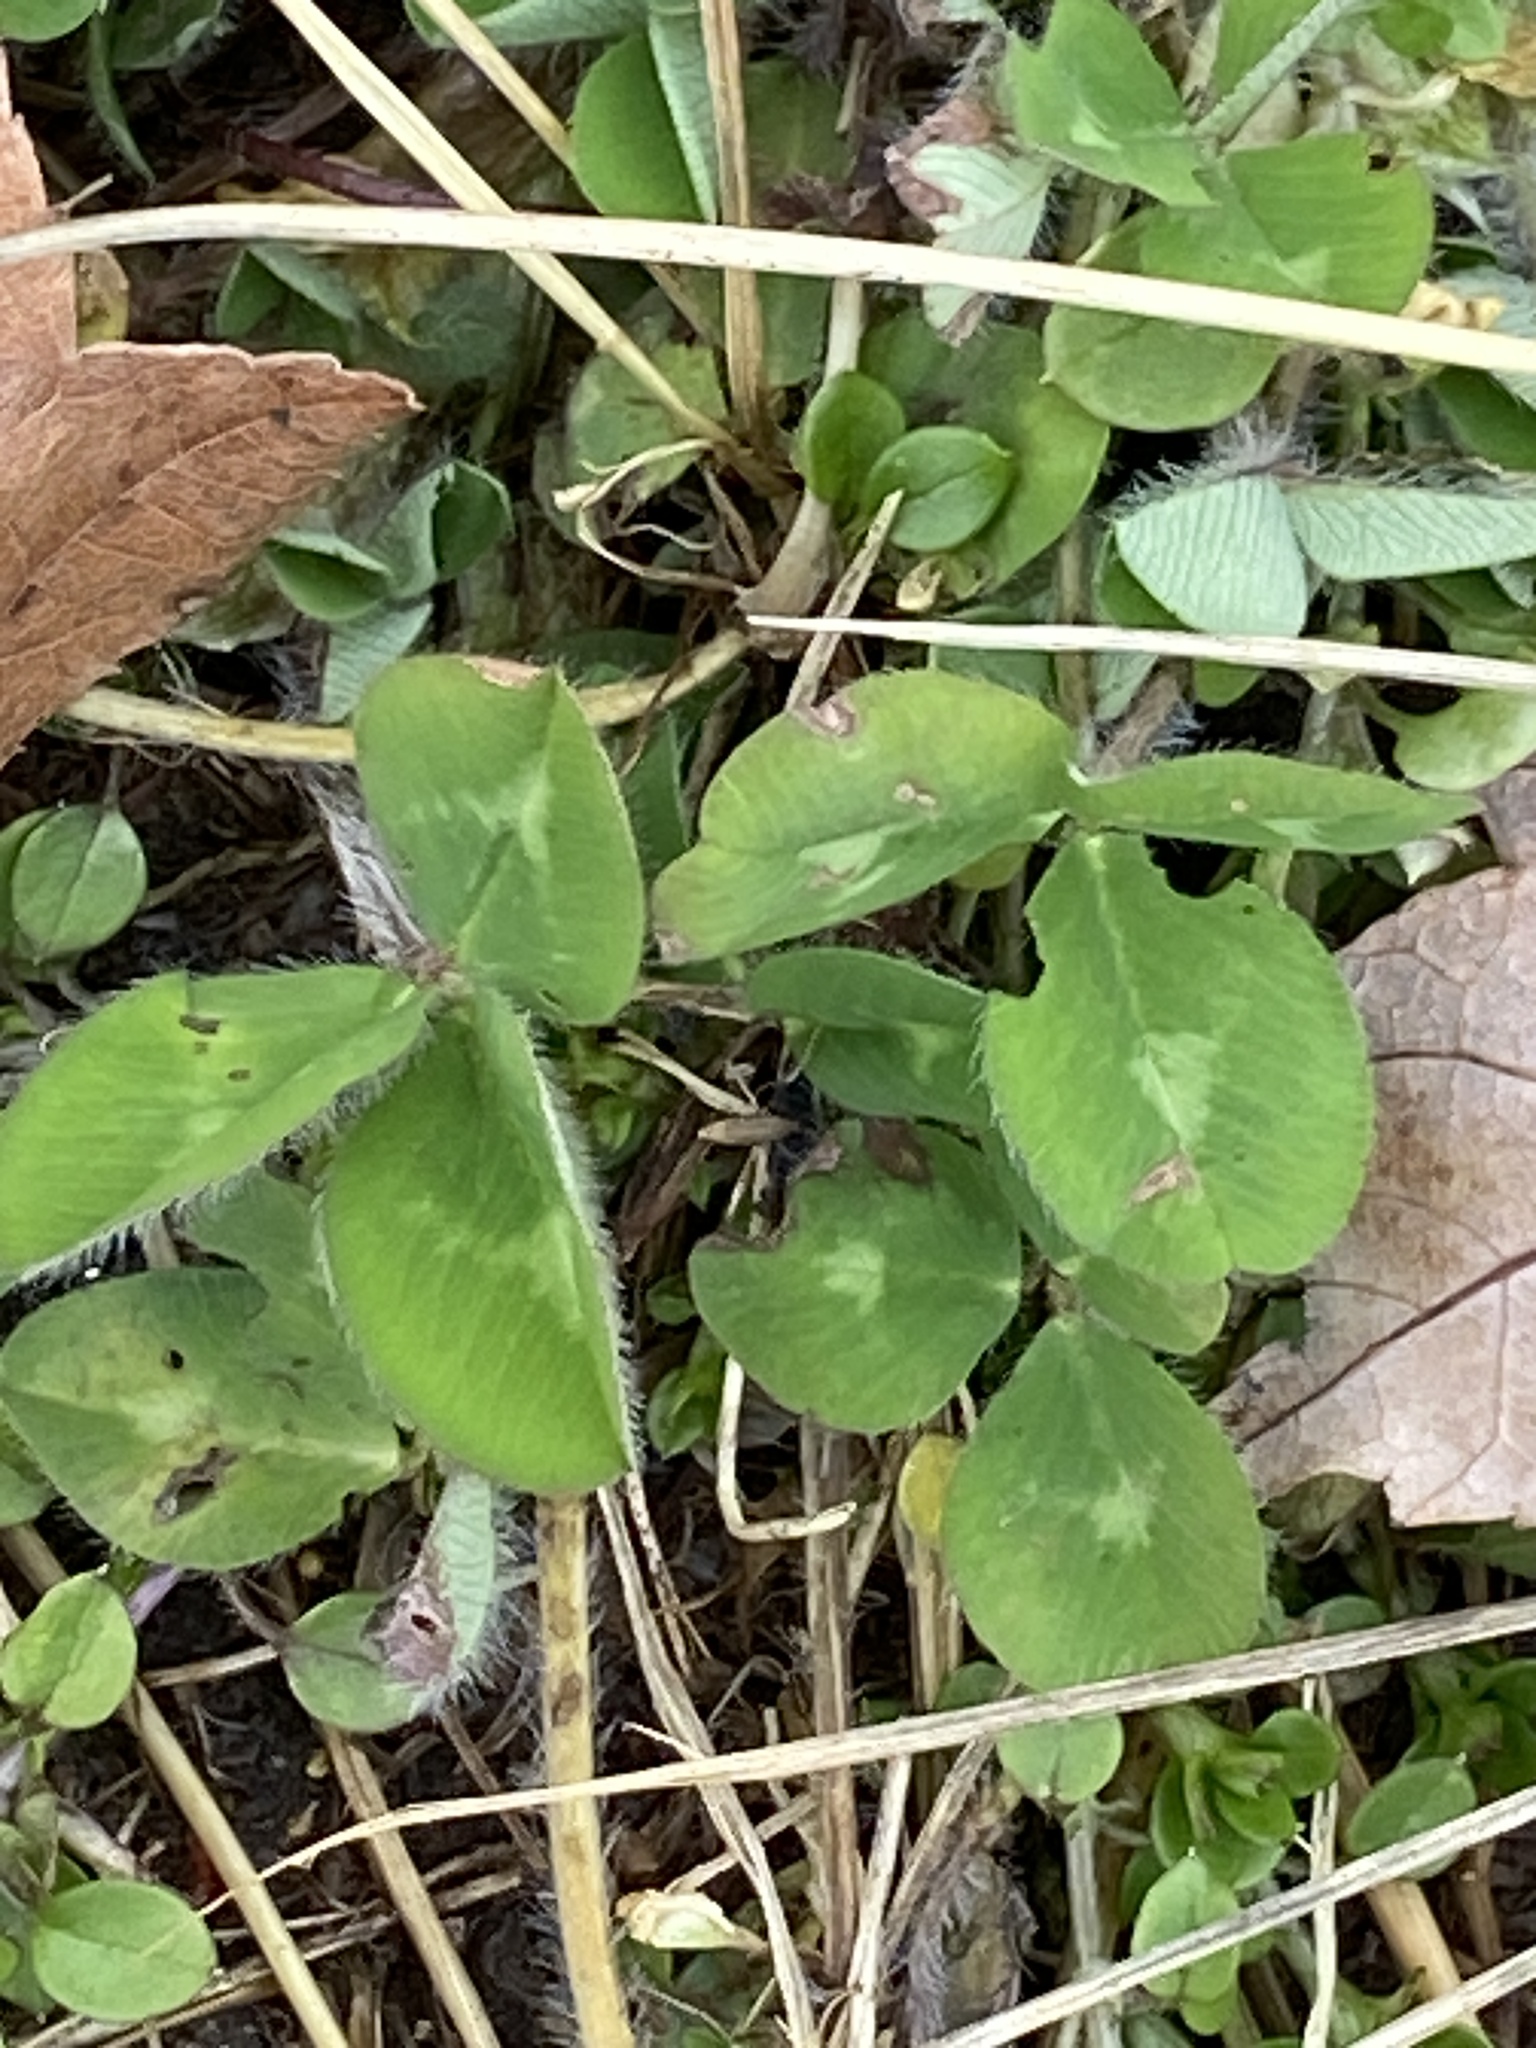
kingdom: Plantae
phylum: Tracheophyta
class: Magnoliopsida
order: Fabales
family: Fabaceae
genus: Trifolium
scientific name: Trifolium pratense
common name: Red clover
